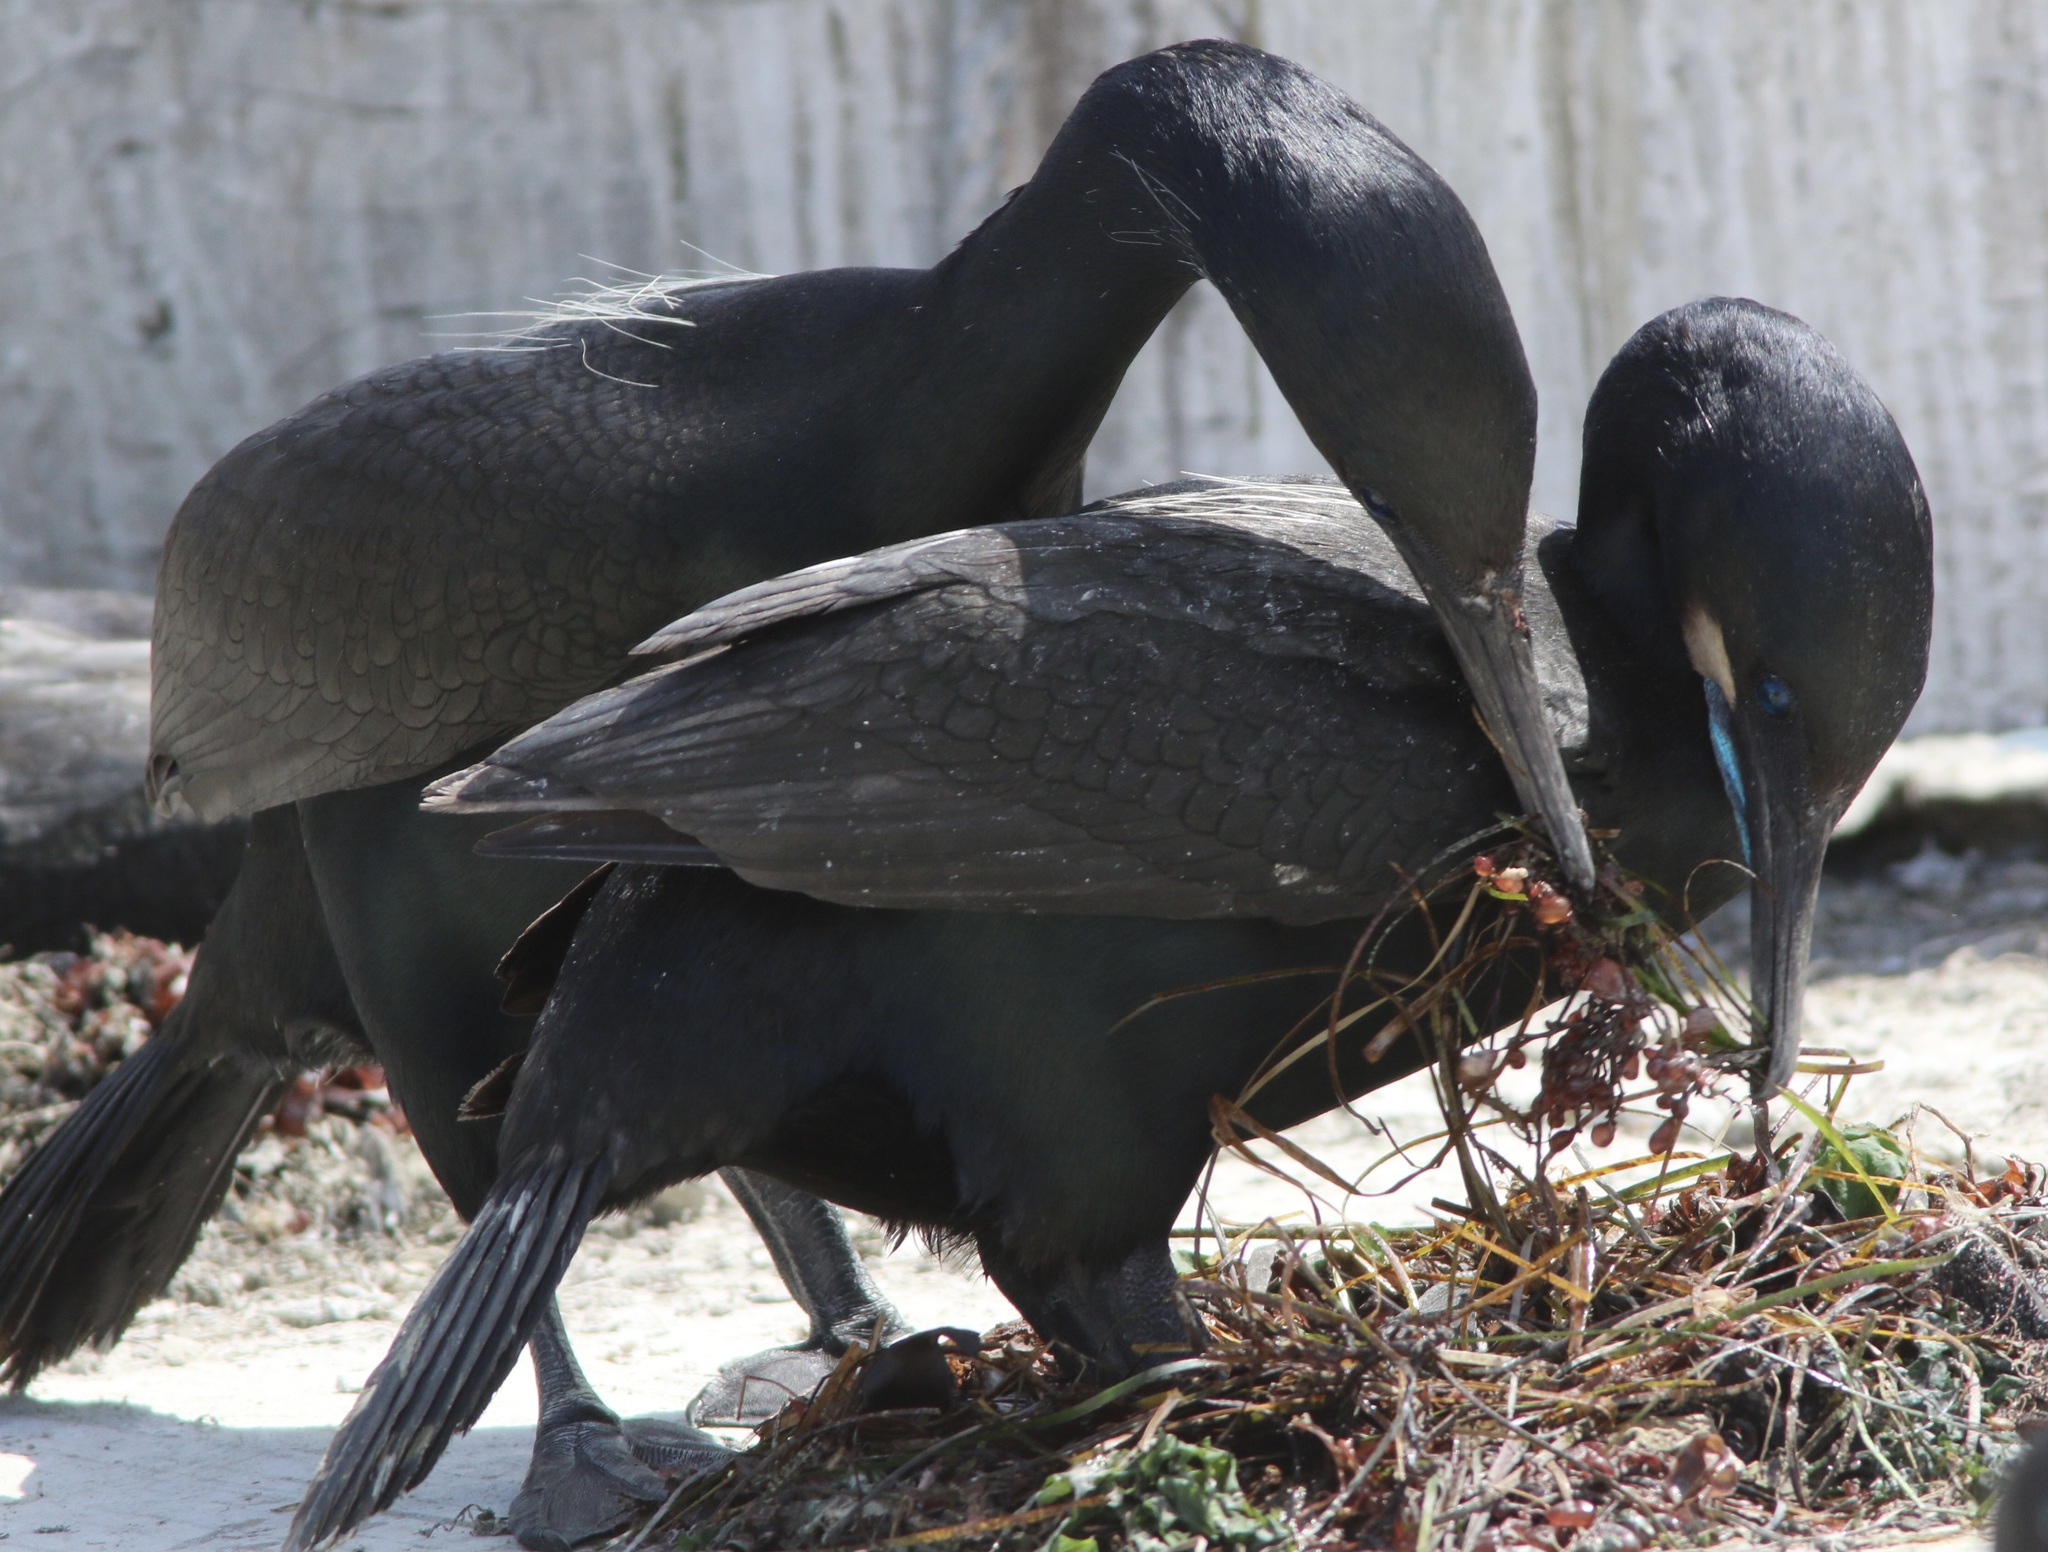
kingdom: Animalia
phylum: Chordata
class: Aves
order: Suliformes
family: Phalacrocoracidae
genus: Urile
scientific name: Urile penicillatus
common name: Brandt's cormorant
